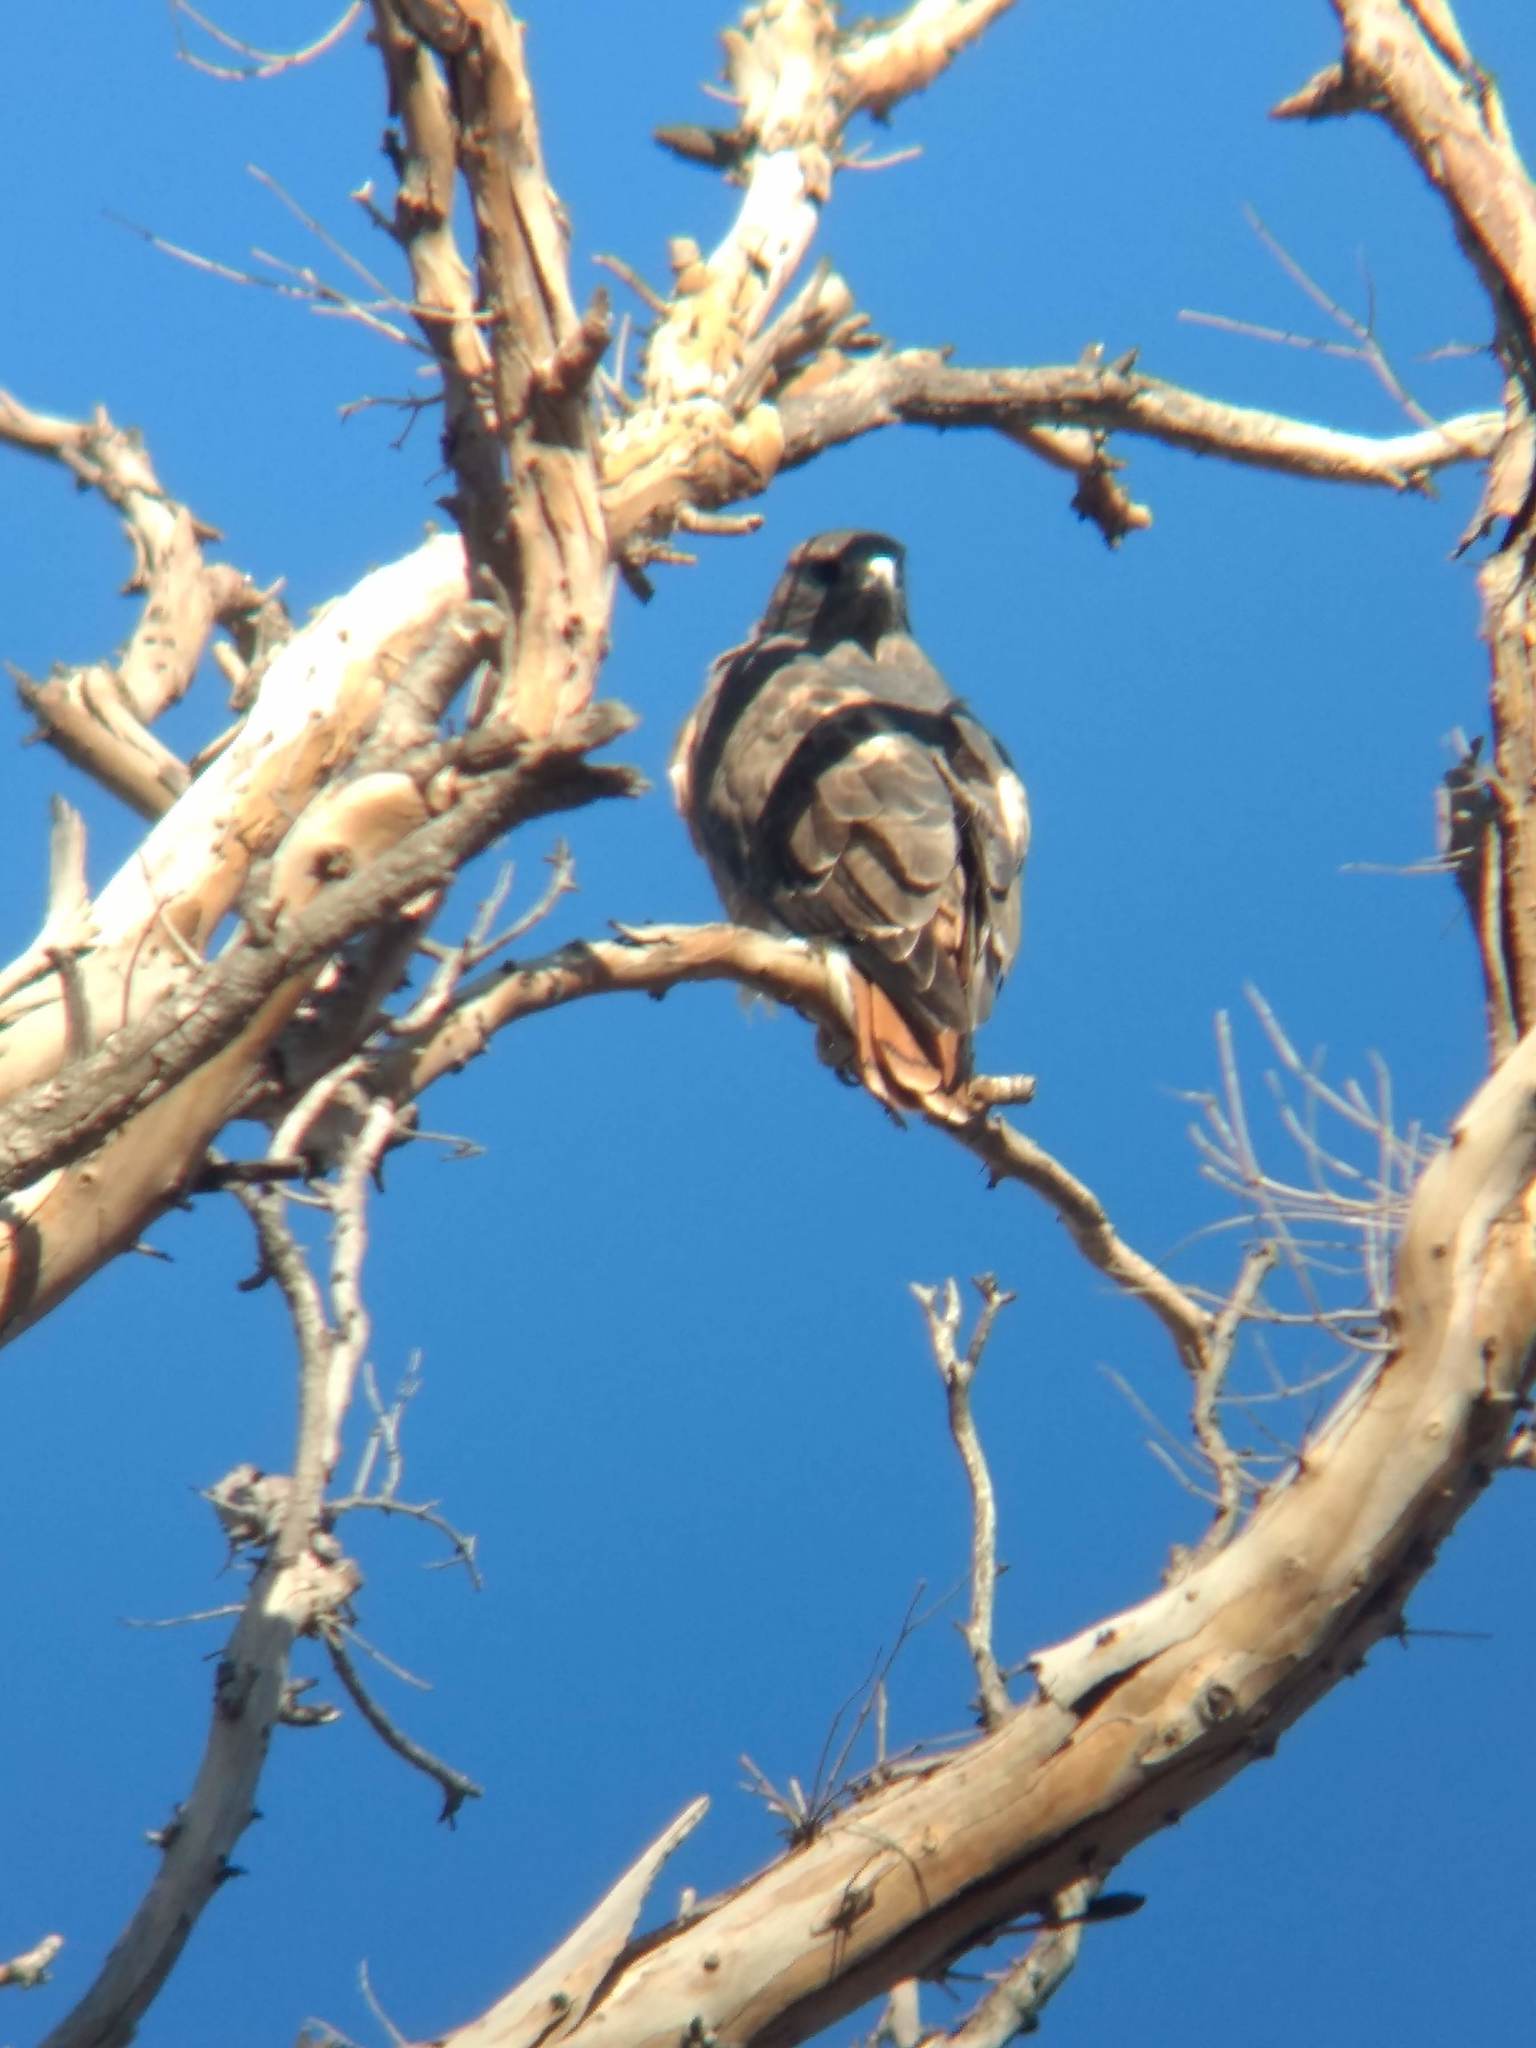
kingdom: Animalia
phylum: Chordata
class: Aves
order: Accipitriformes
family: Accipitridae
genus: Buteo
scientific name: Buteo jamaicensis
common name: Red-tailed hawk
